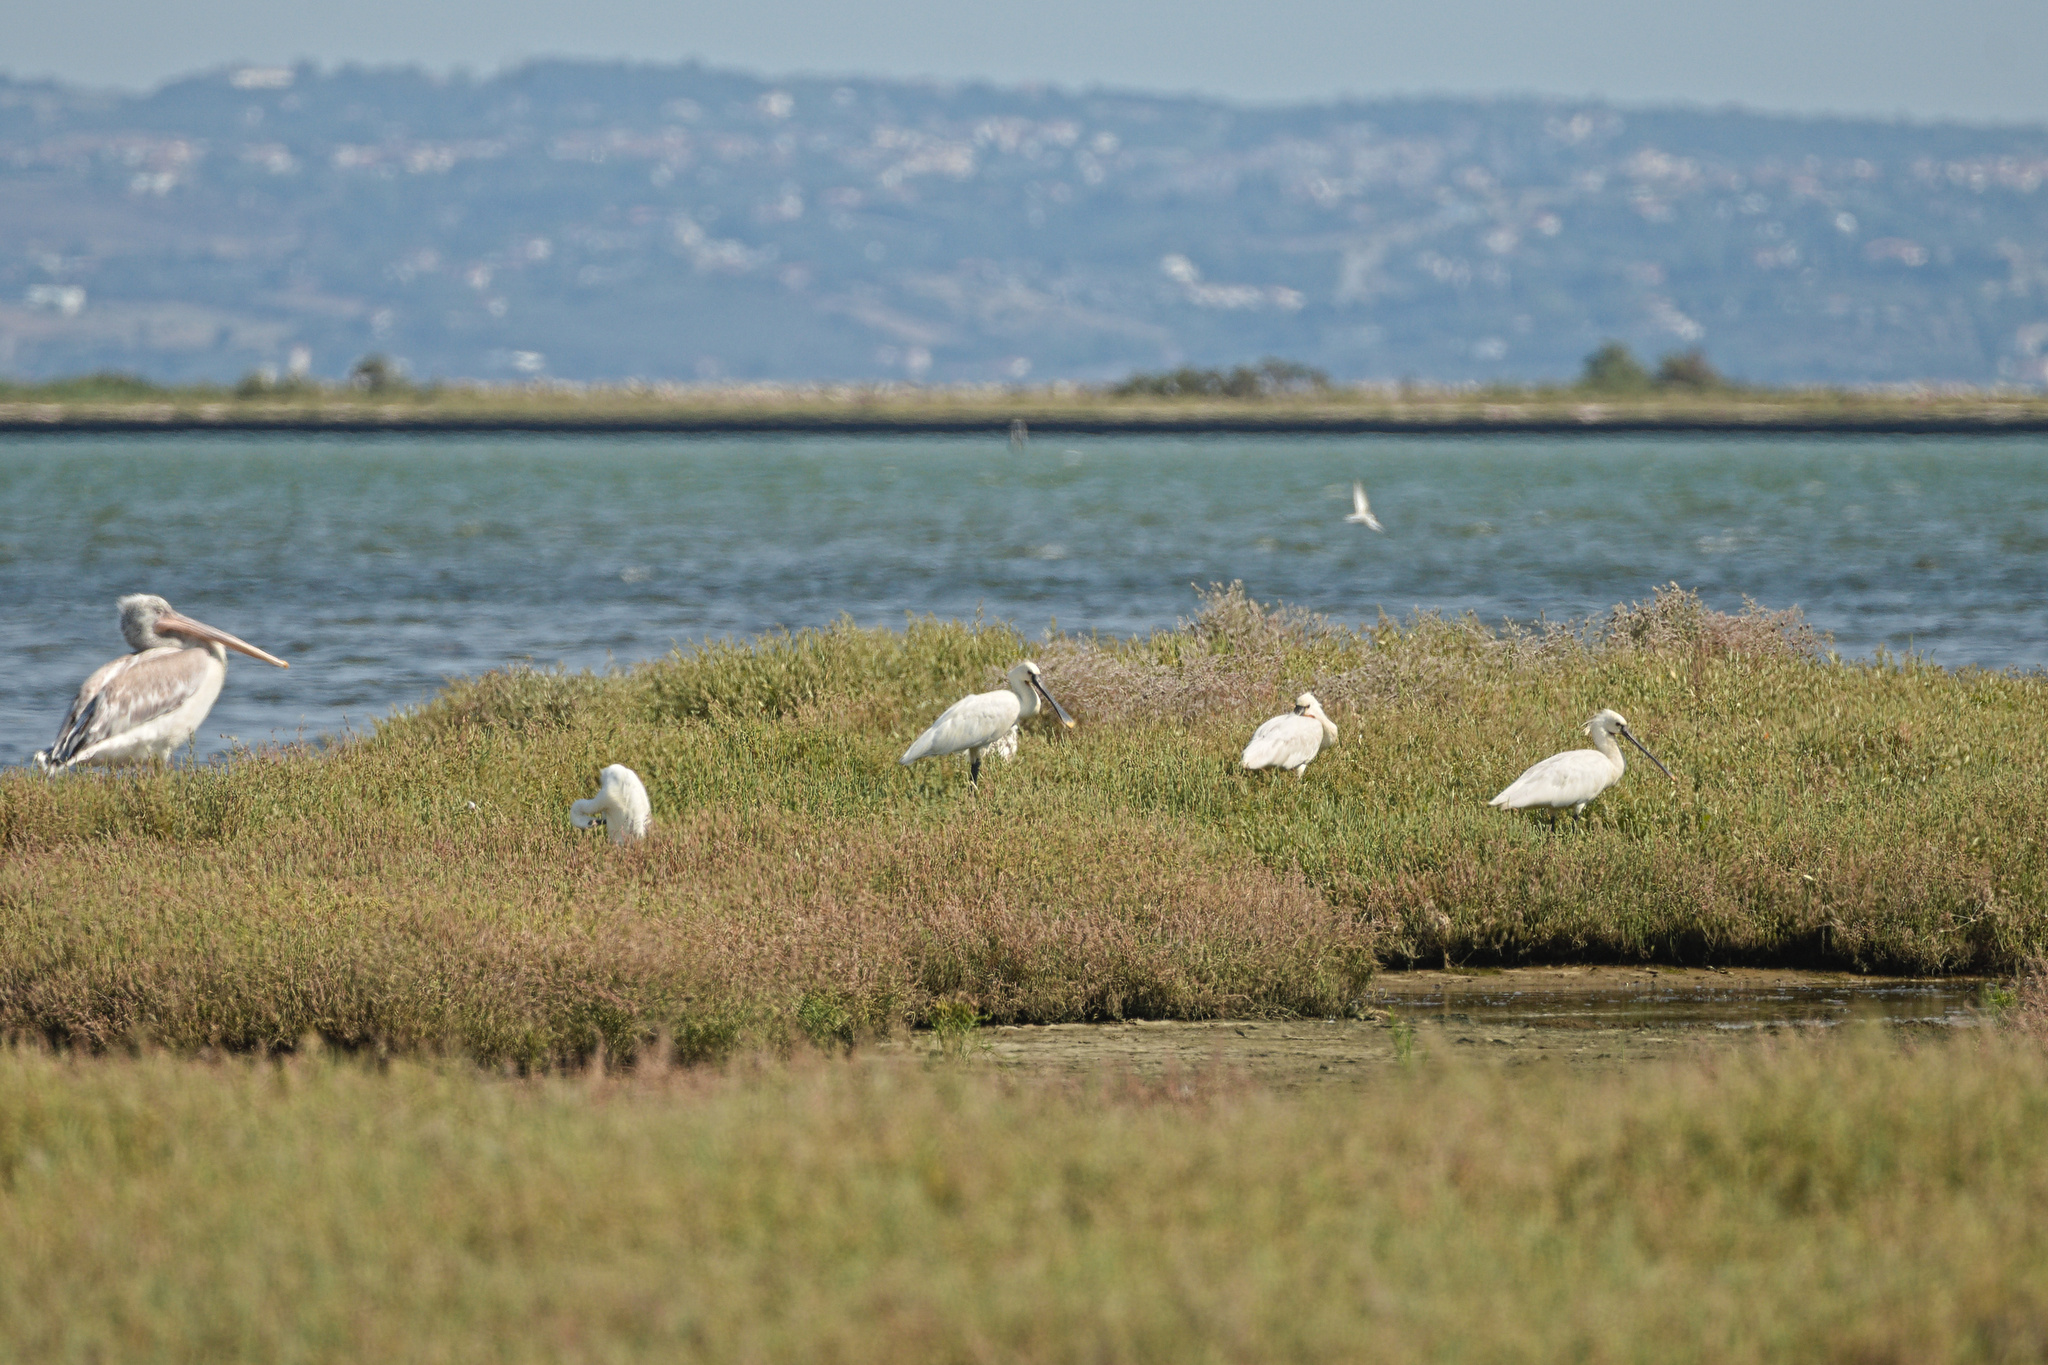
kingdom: Animalia
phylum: Chordata
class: Aves
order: Pelecaniformes
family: Threskiornithidae
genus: Platalea
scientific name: Platalea leucorodia
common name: Eurasian spoonbill
